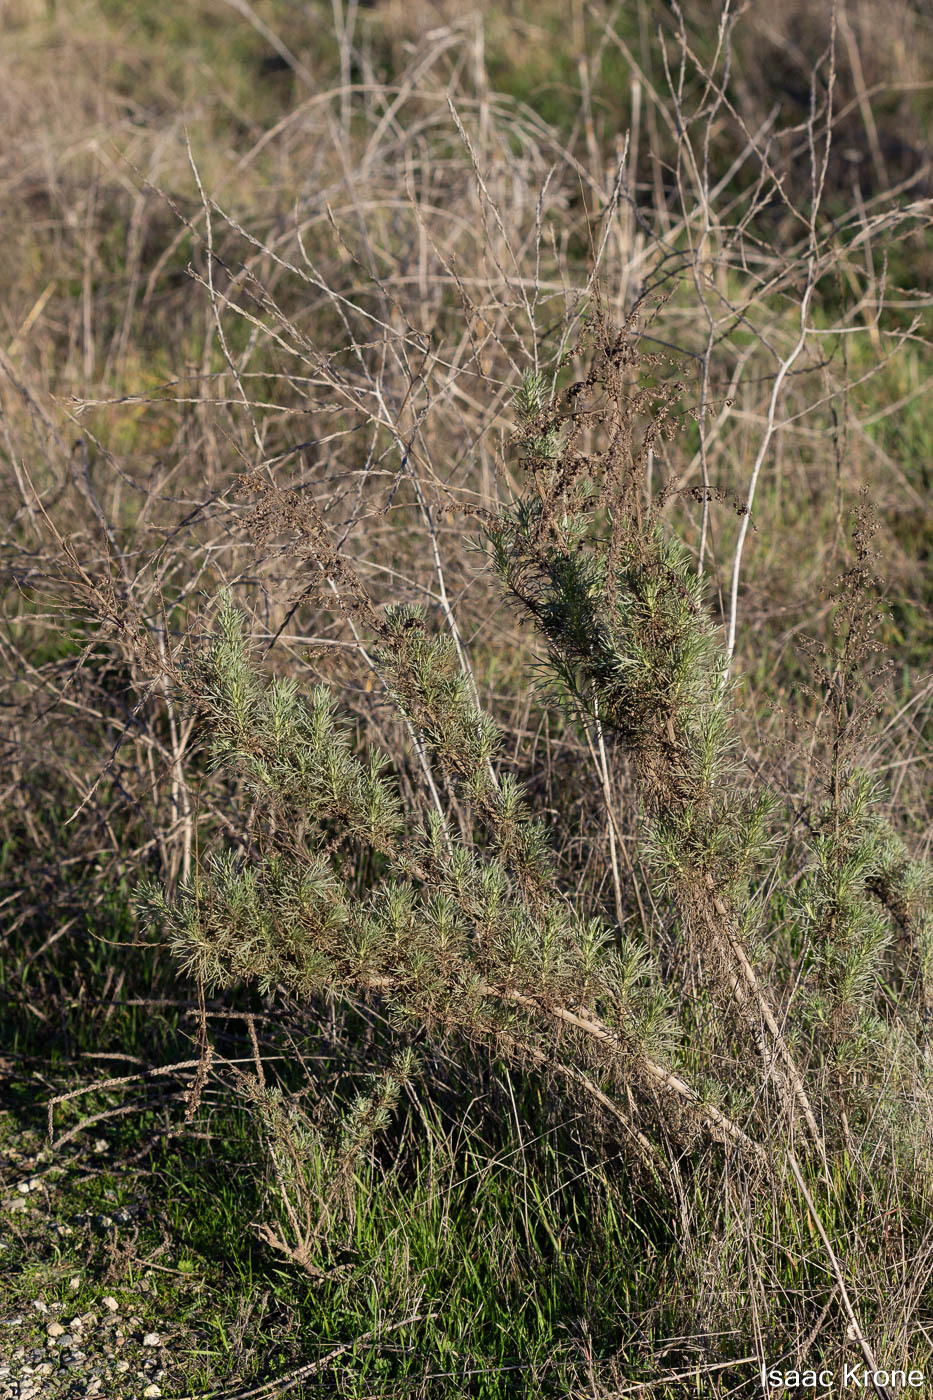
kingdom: Plantae
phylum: Tracheophyta
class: Magnoliopsida
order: Asterales
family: Asteraceae
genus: Artemisia
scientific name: Artemisia californica
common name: California sagebrush
